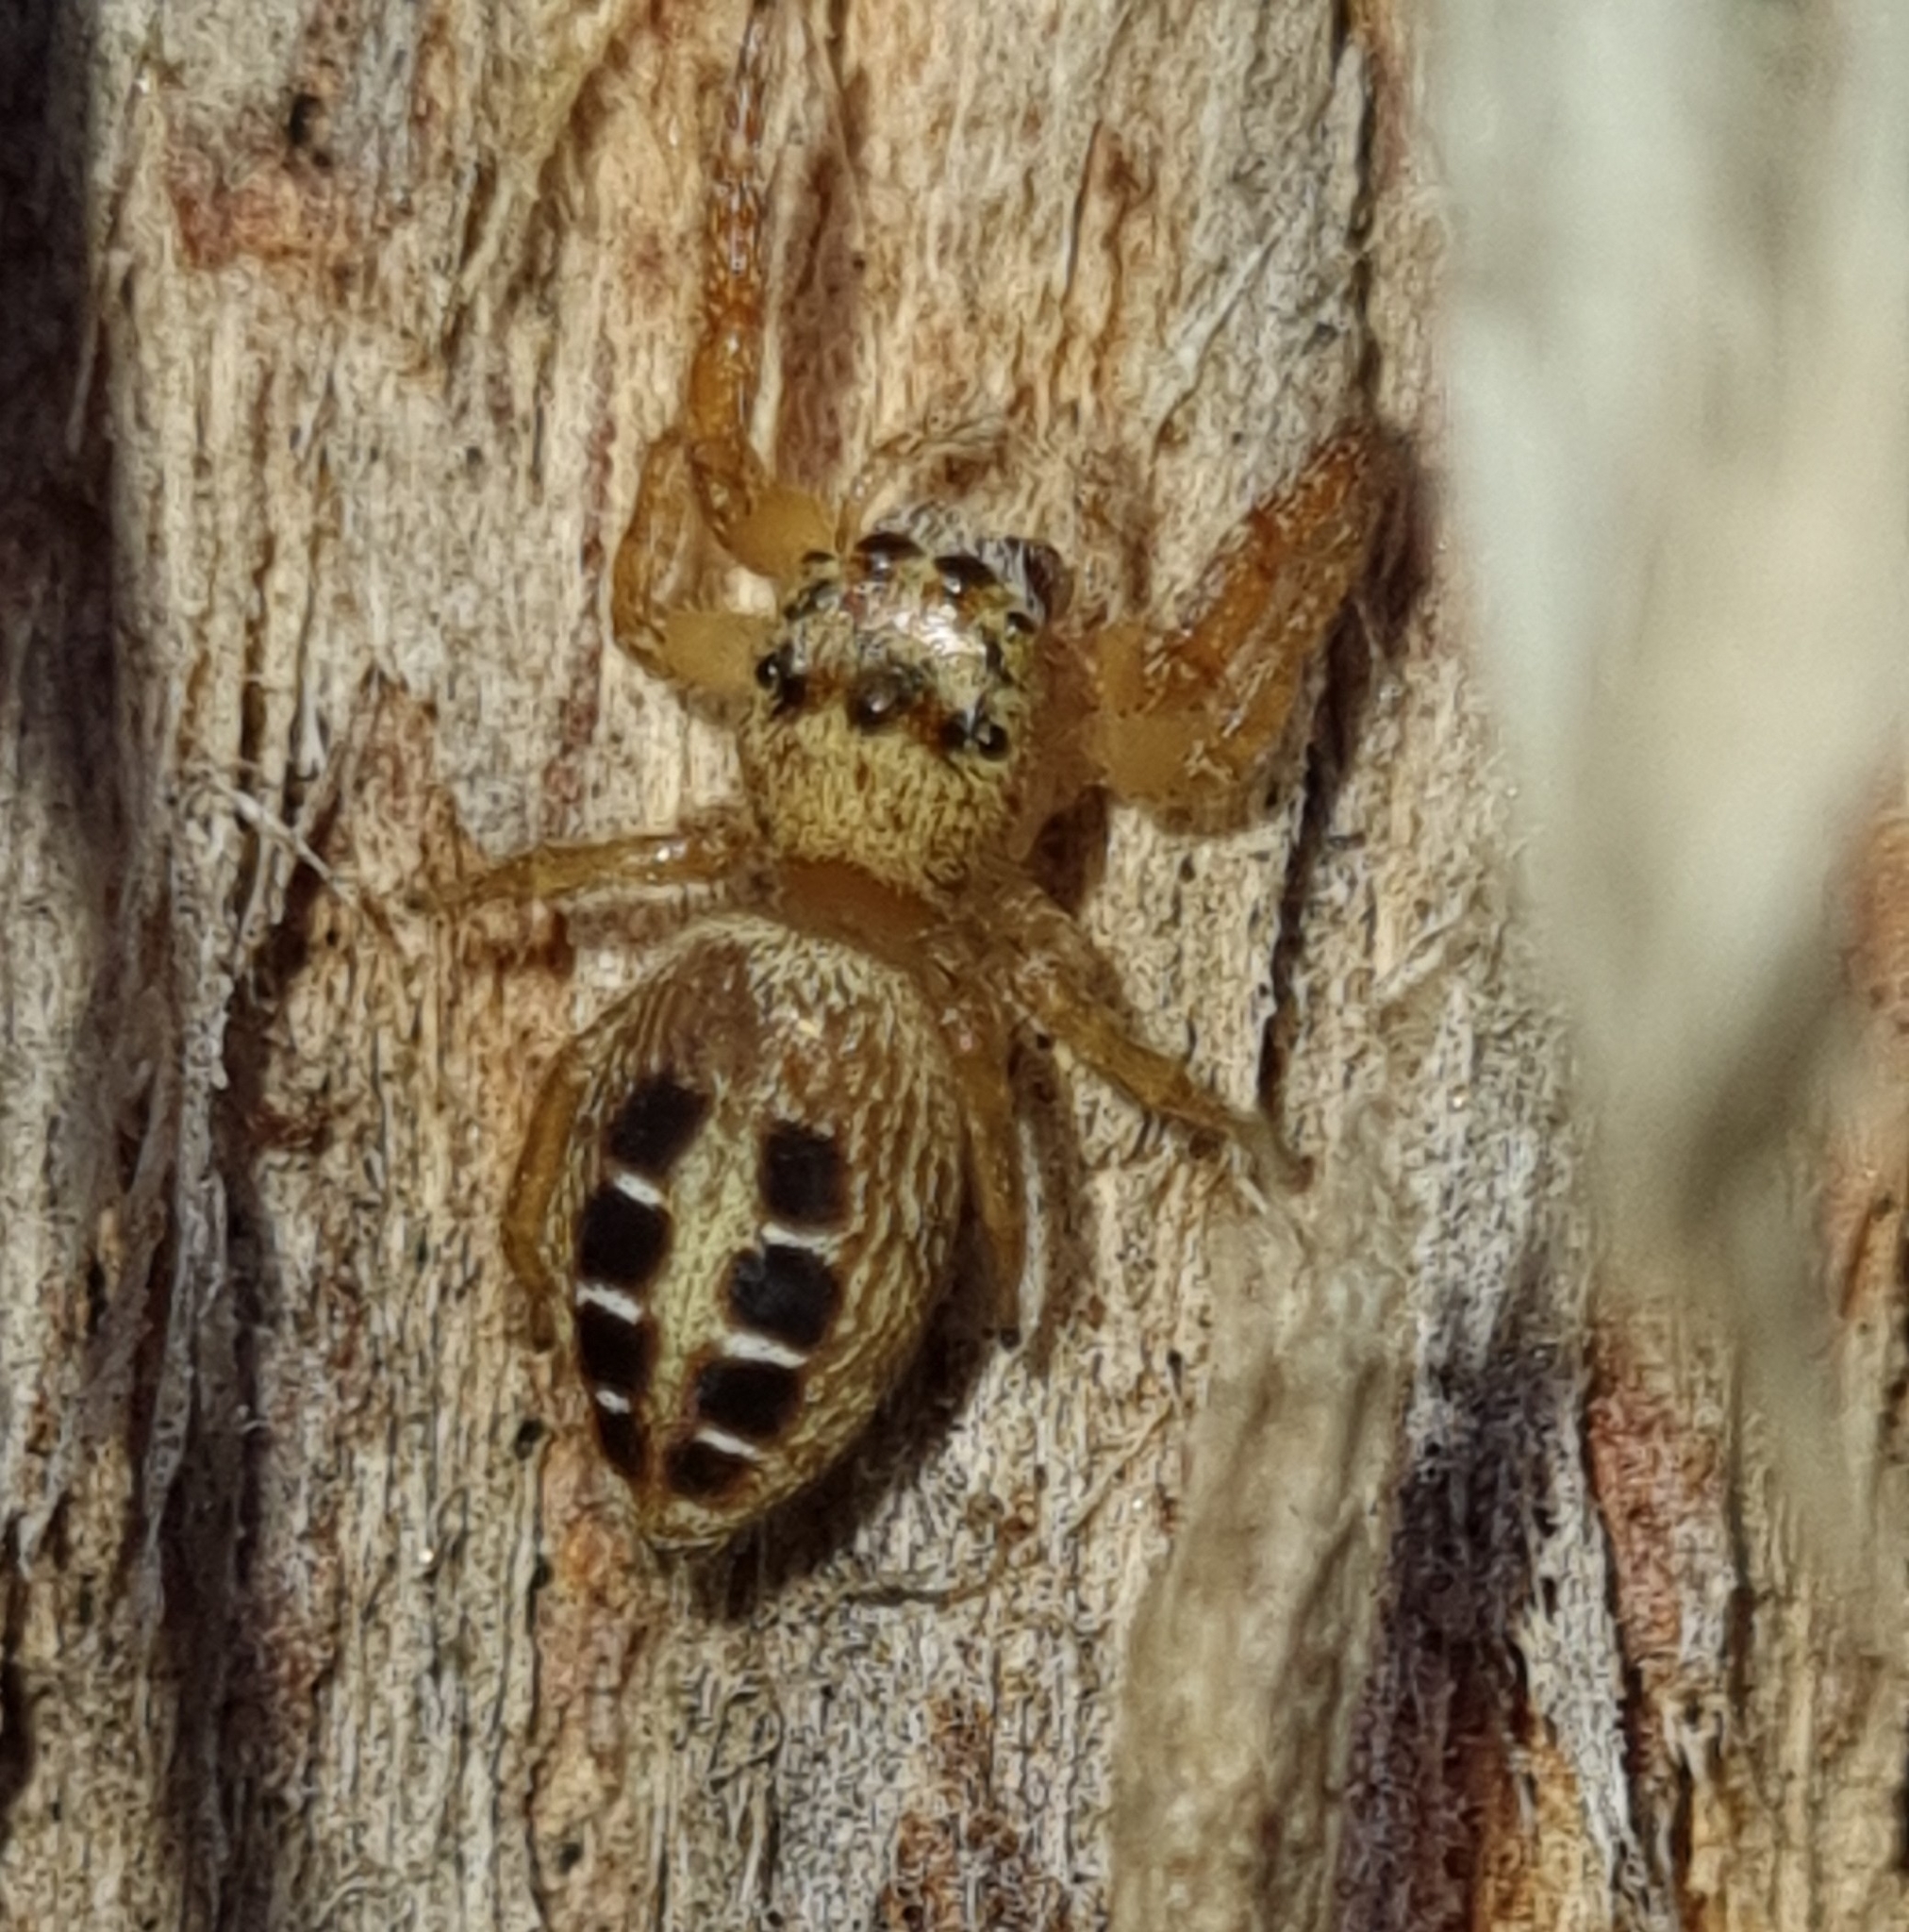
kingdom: Animalia
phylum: Arthropoda
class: Arachnida
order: Araneae
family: Salticidae
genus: Opisthoncus
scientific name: Opisthoncus sexmaculatus
